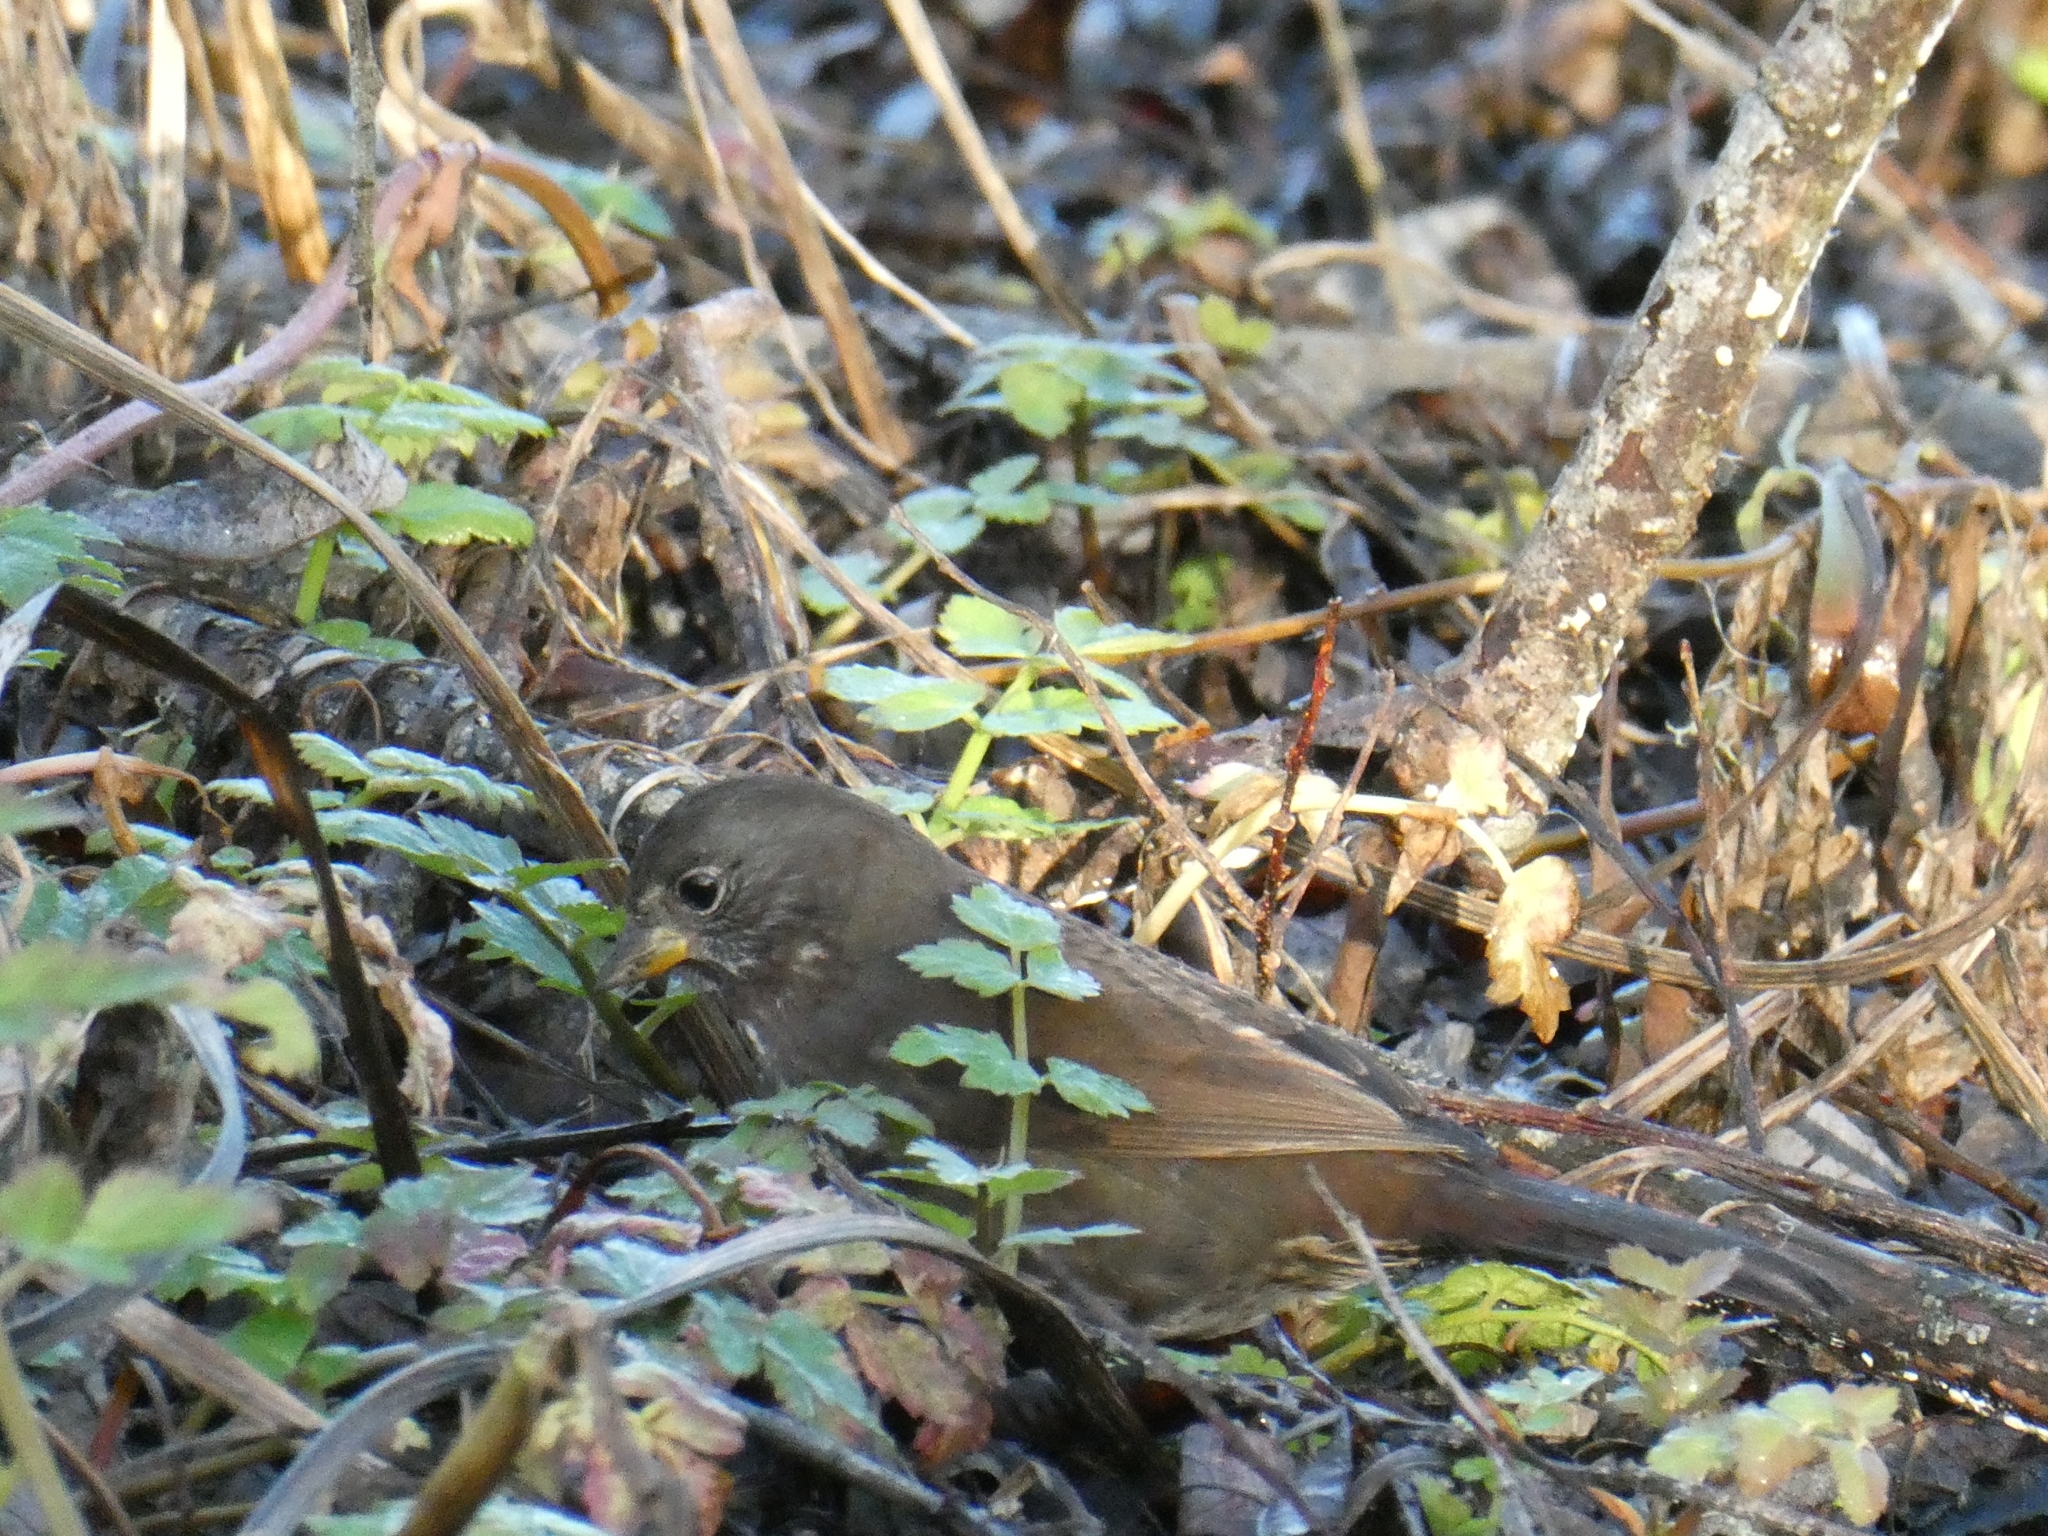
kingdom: Animalia
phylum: Chordata
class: Aves
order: Passeriformes
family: Passerellidae
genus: Passerella
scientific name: Passerella iliaca
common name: Fox sparrow
